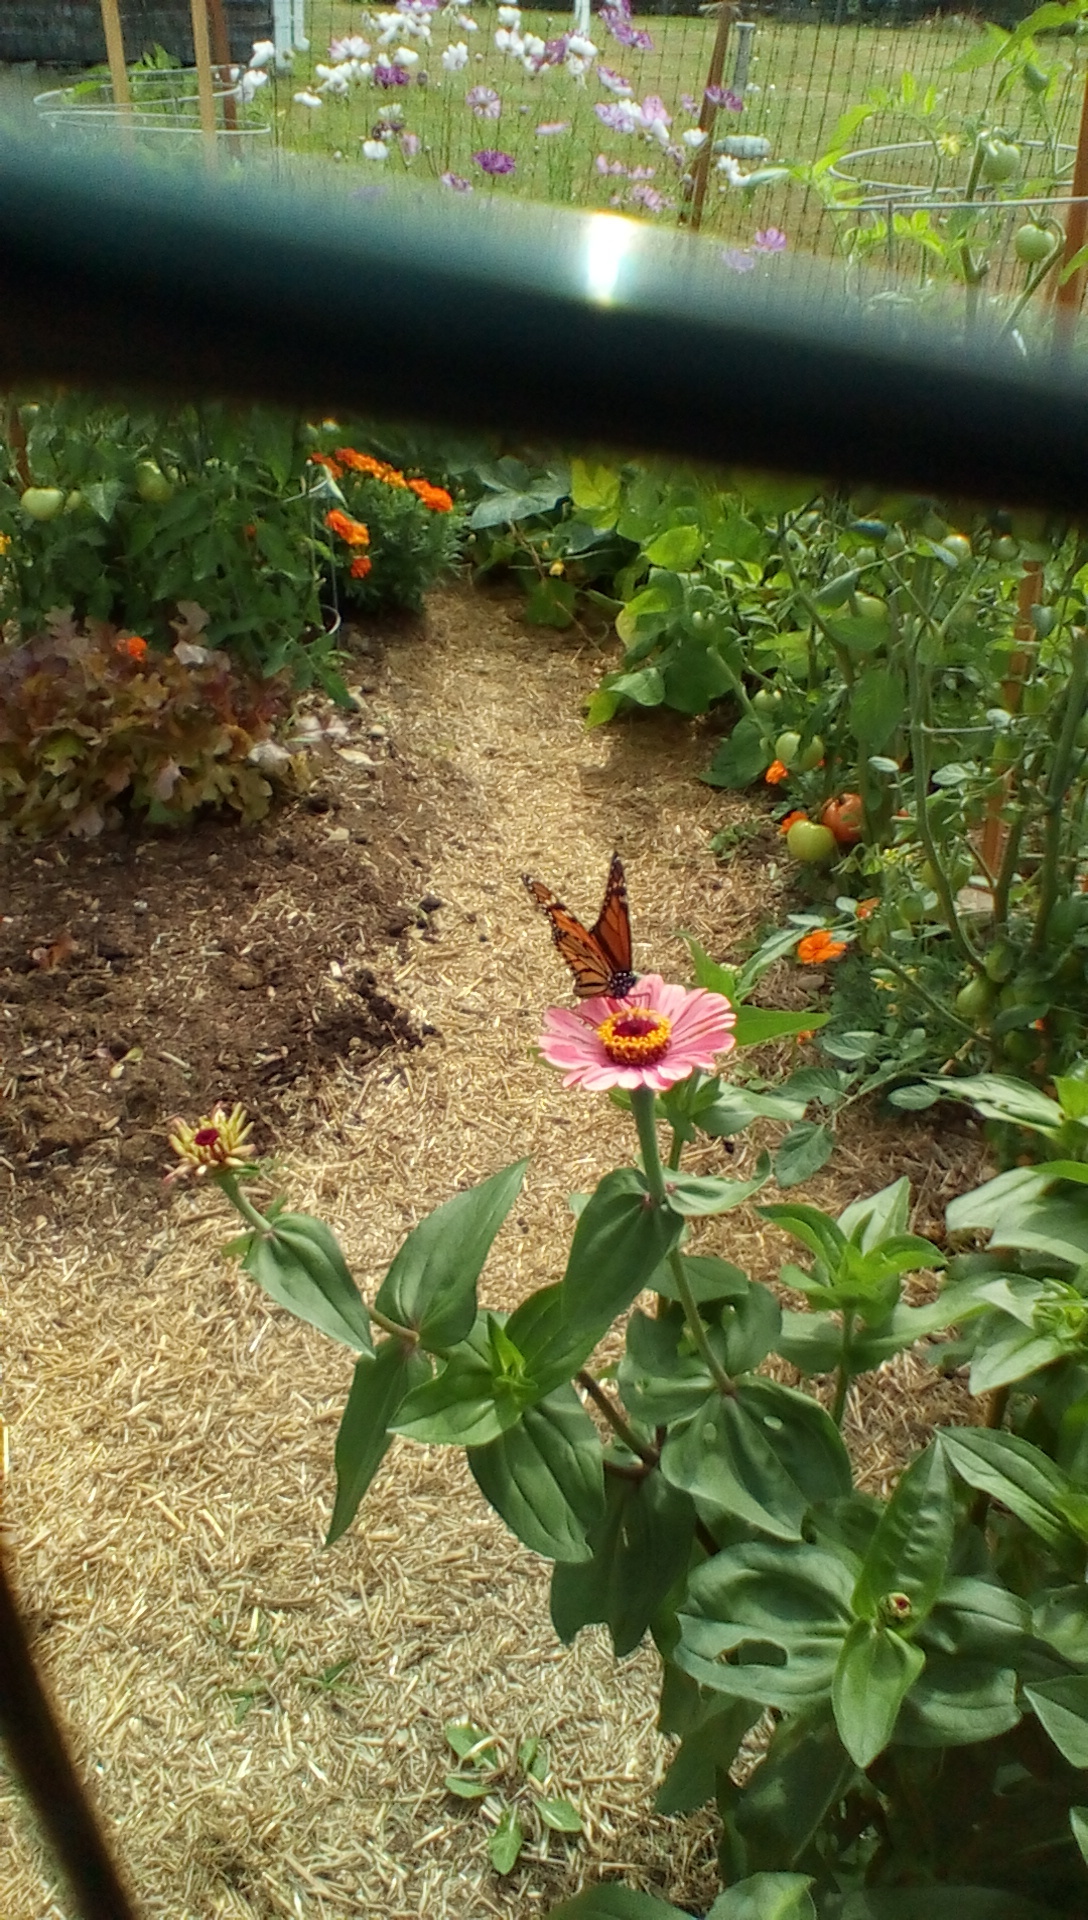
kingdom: Animalia
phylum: Arthropoda
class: Insecta
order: Lepidoptera
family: Nymphalidae
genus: Danaus
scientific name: Danaus plexippus
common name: Monarch
